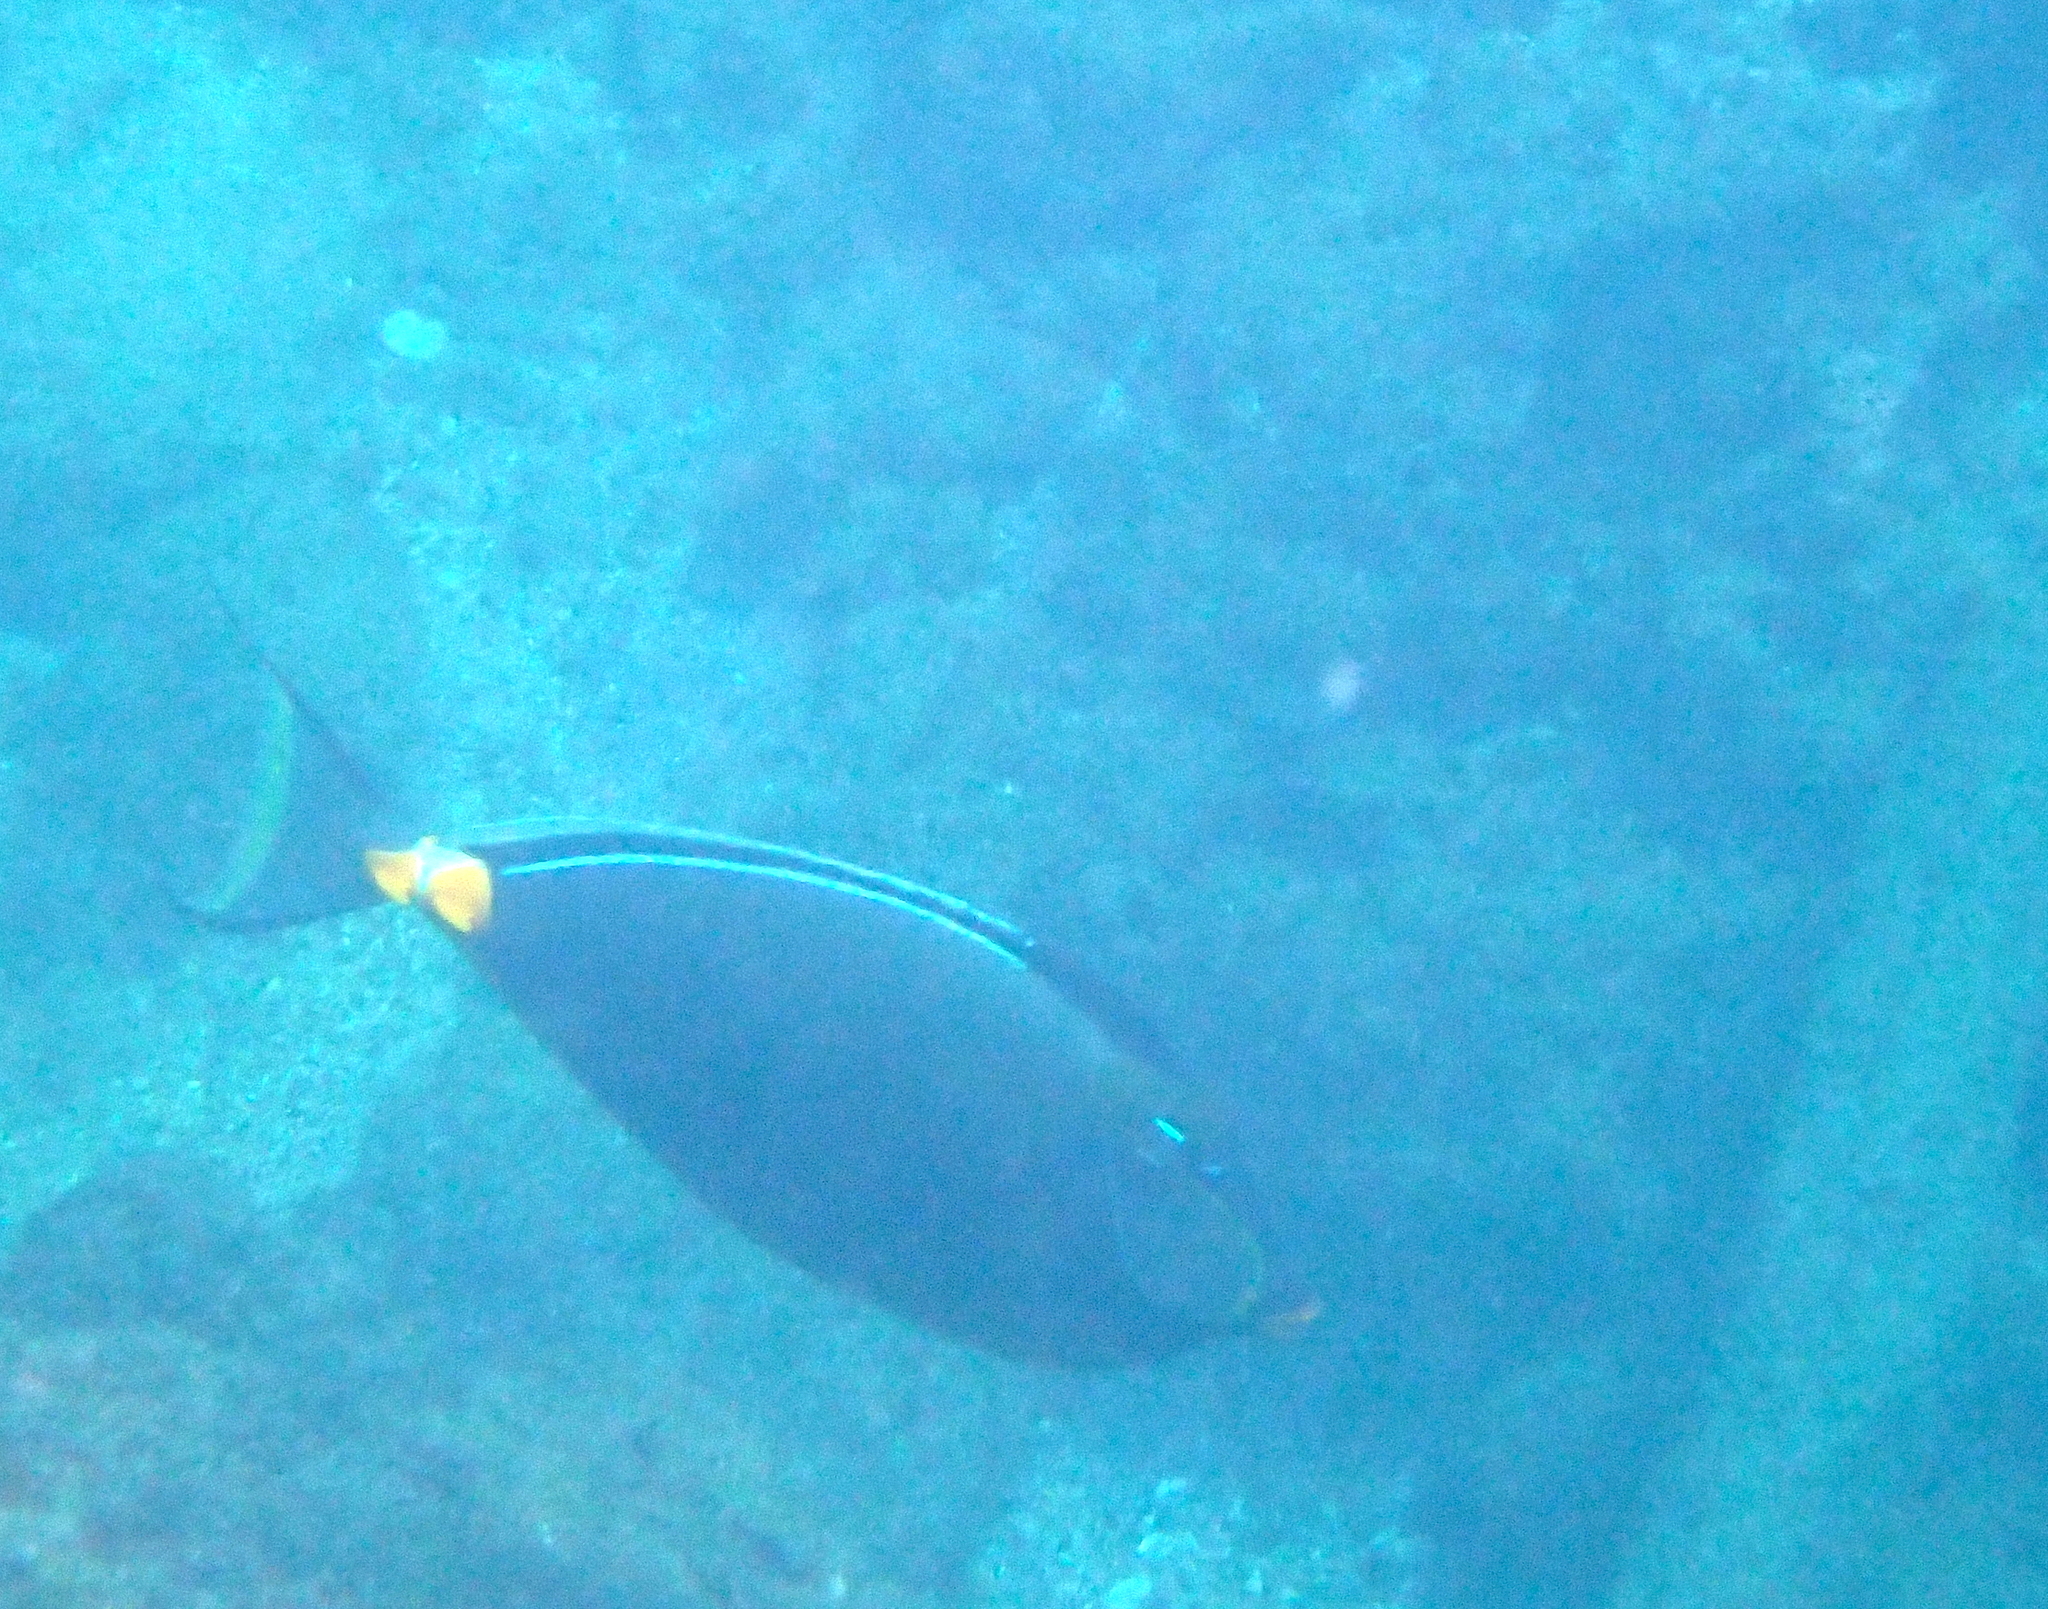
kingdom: Animalia
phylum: Chordata
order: Perciformes
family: Acanthuridae
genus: Naso
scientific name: Naso lituratus
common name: Orangespine unicornfish
